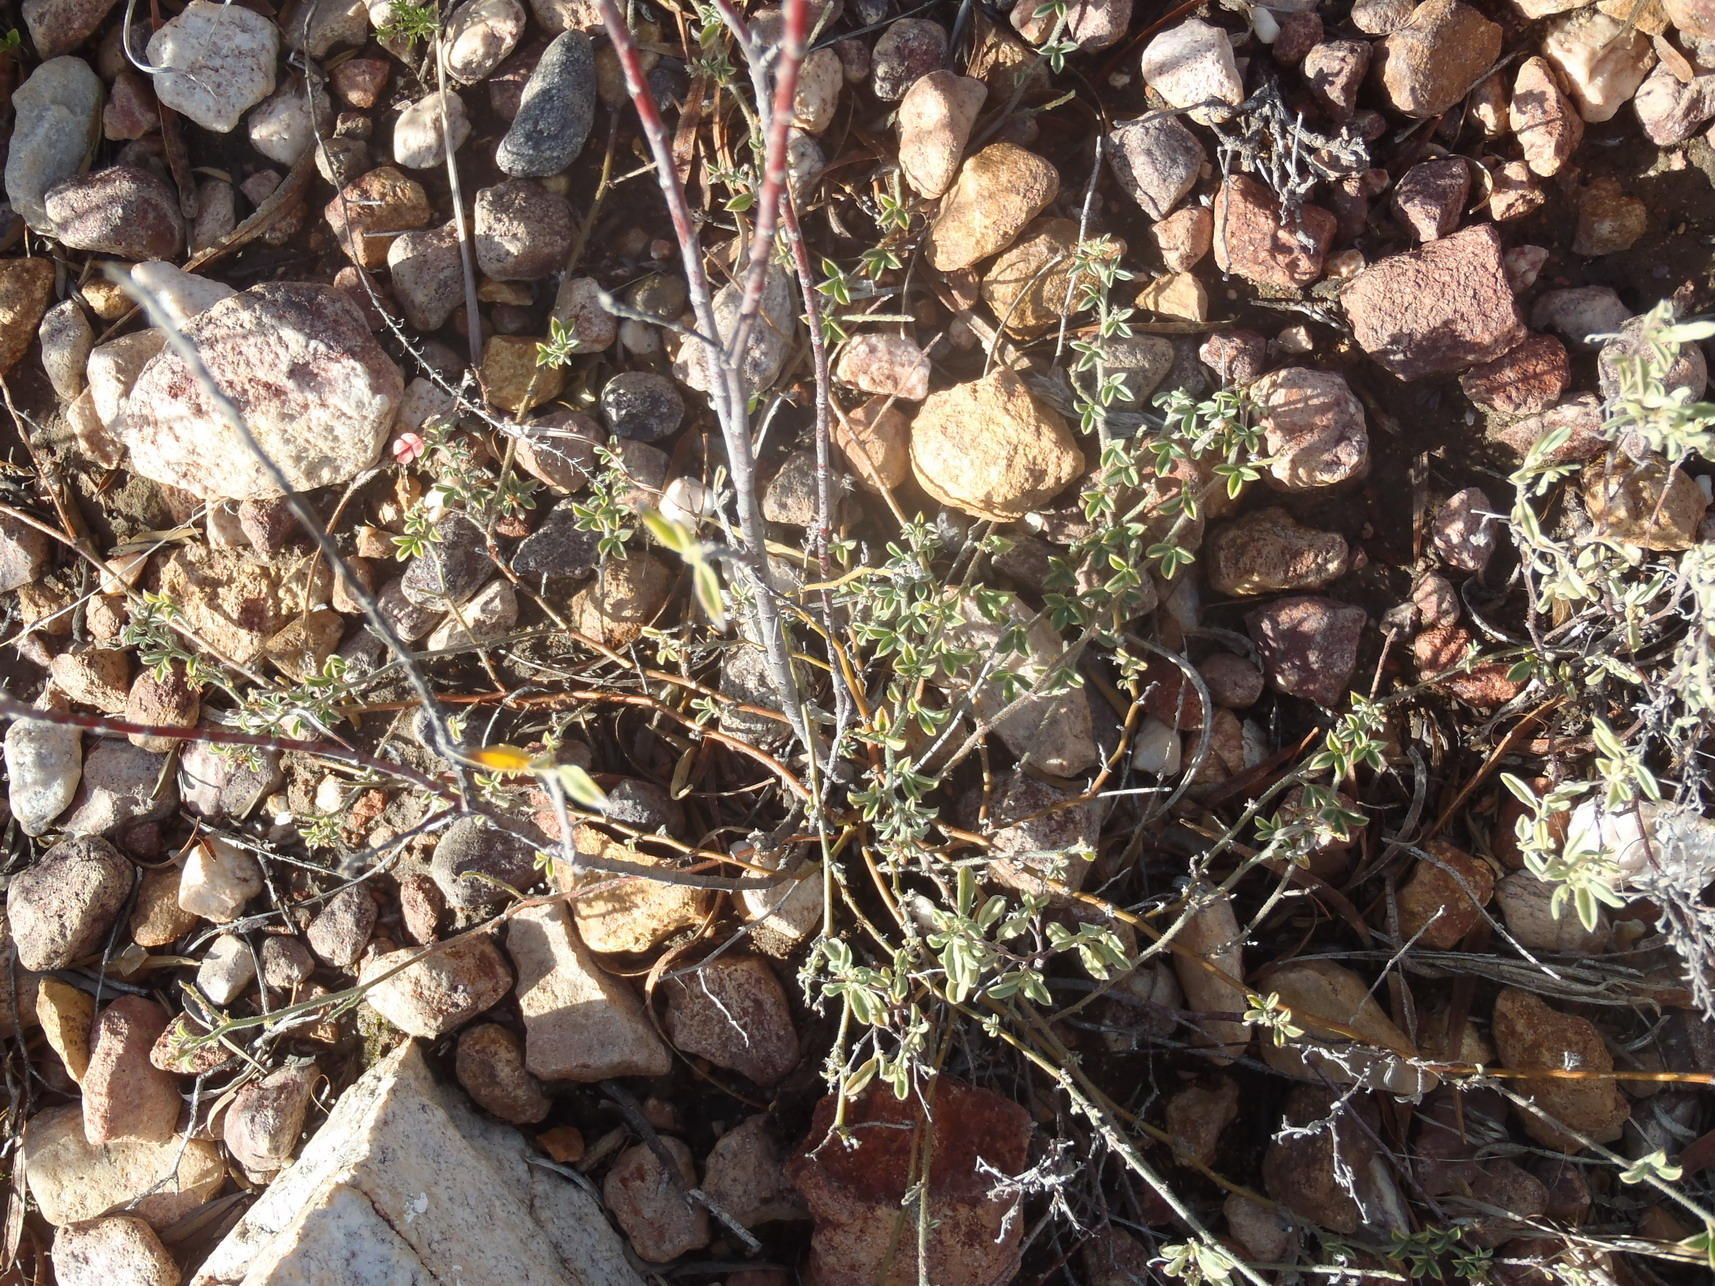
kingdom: Plantae
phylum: Tracheophyta
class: Magnoliopsida
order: Fabales
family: Fabaceae
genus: Indigofera
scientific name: Indigofera priorii
